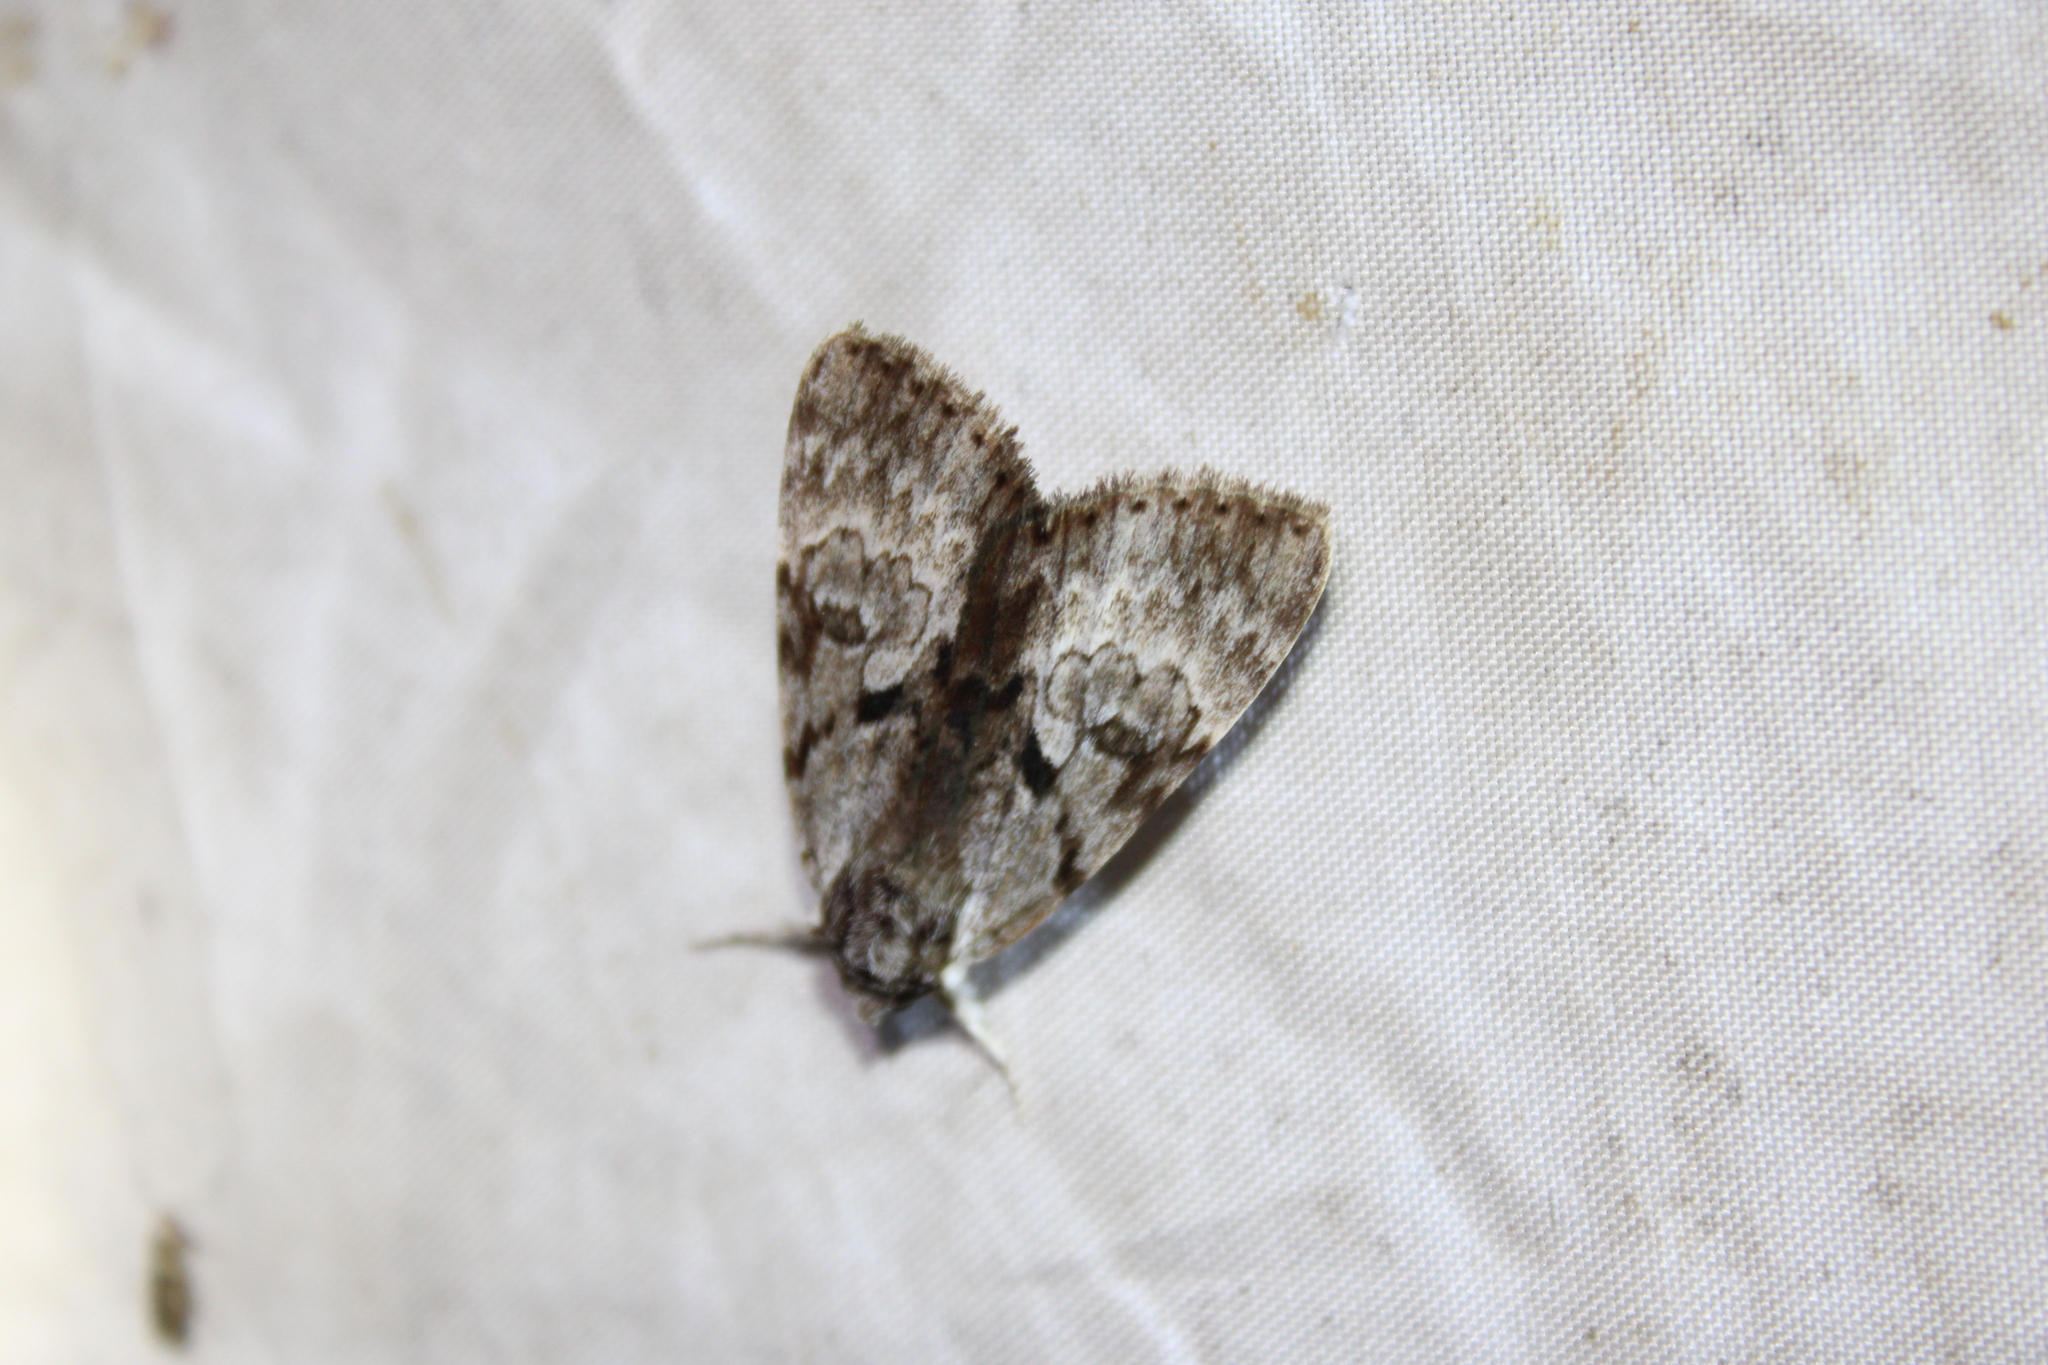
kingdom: Animalia
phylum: Arthropoda
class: Insecta
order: Lepidoptera
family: Erebidae
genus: Catocala
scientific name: Catocala andromedae
